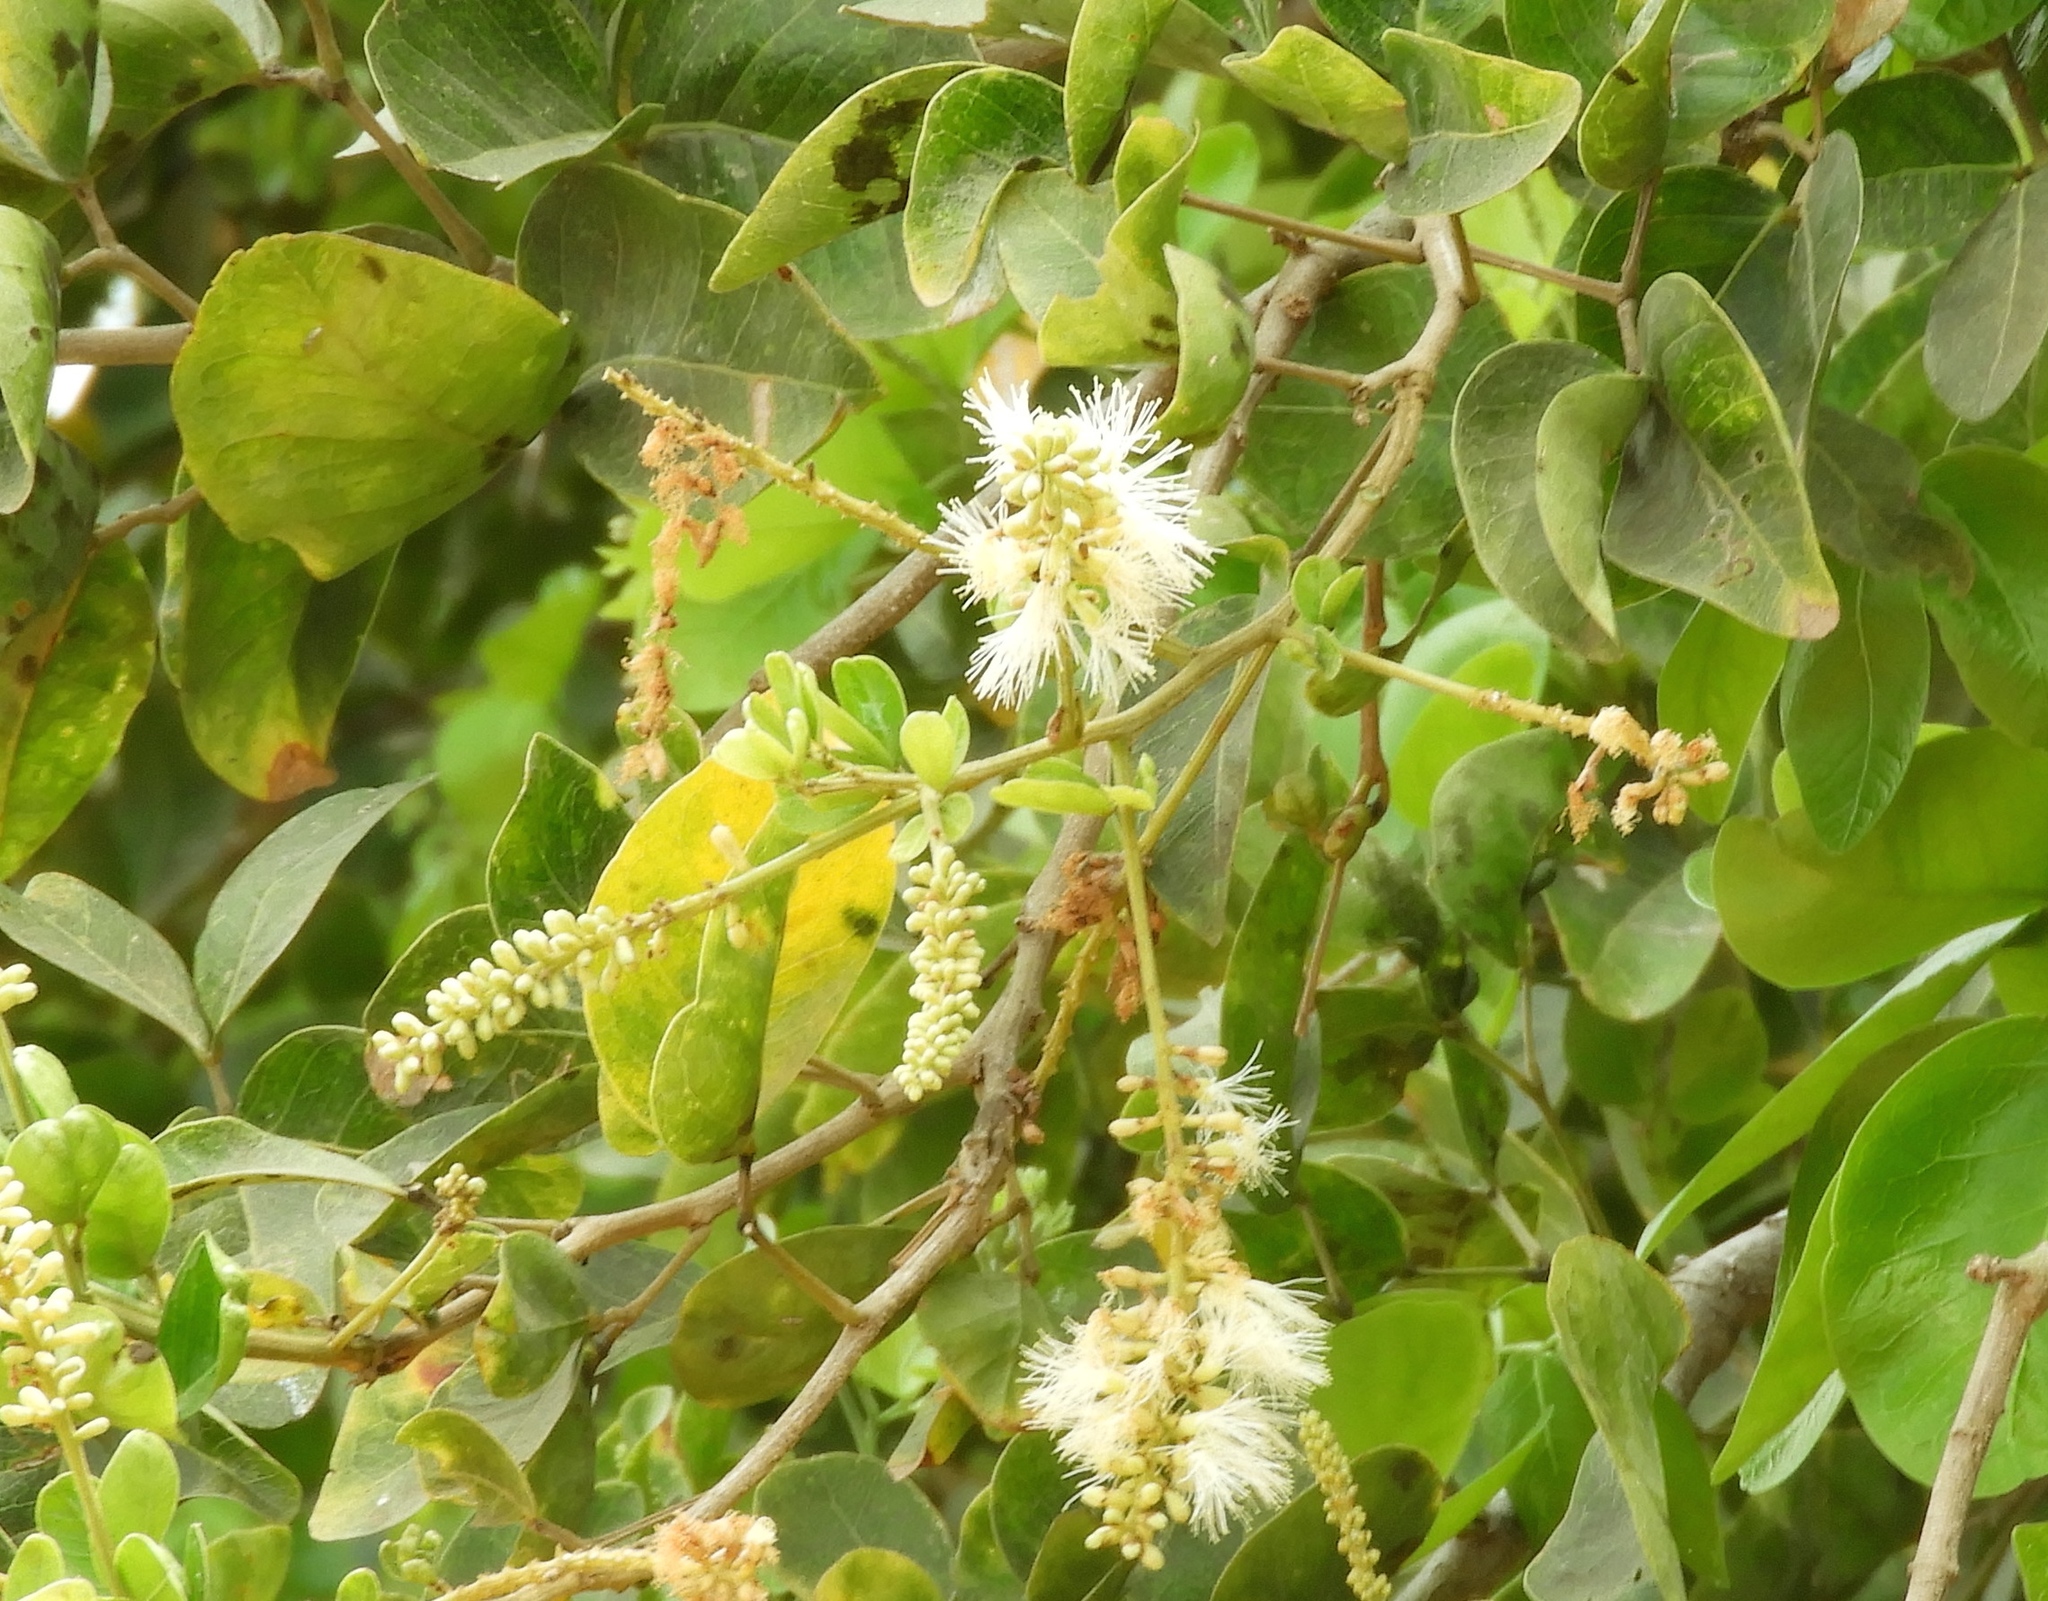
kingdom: Plantae
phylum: Tracheophyta
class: Magnoliopsida
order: Fabales
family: Fabaceae
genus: Pithecellobium
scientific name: Pithecellobium lanceolatum
